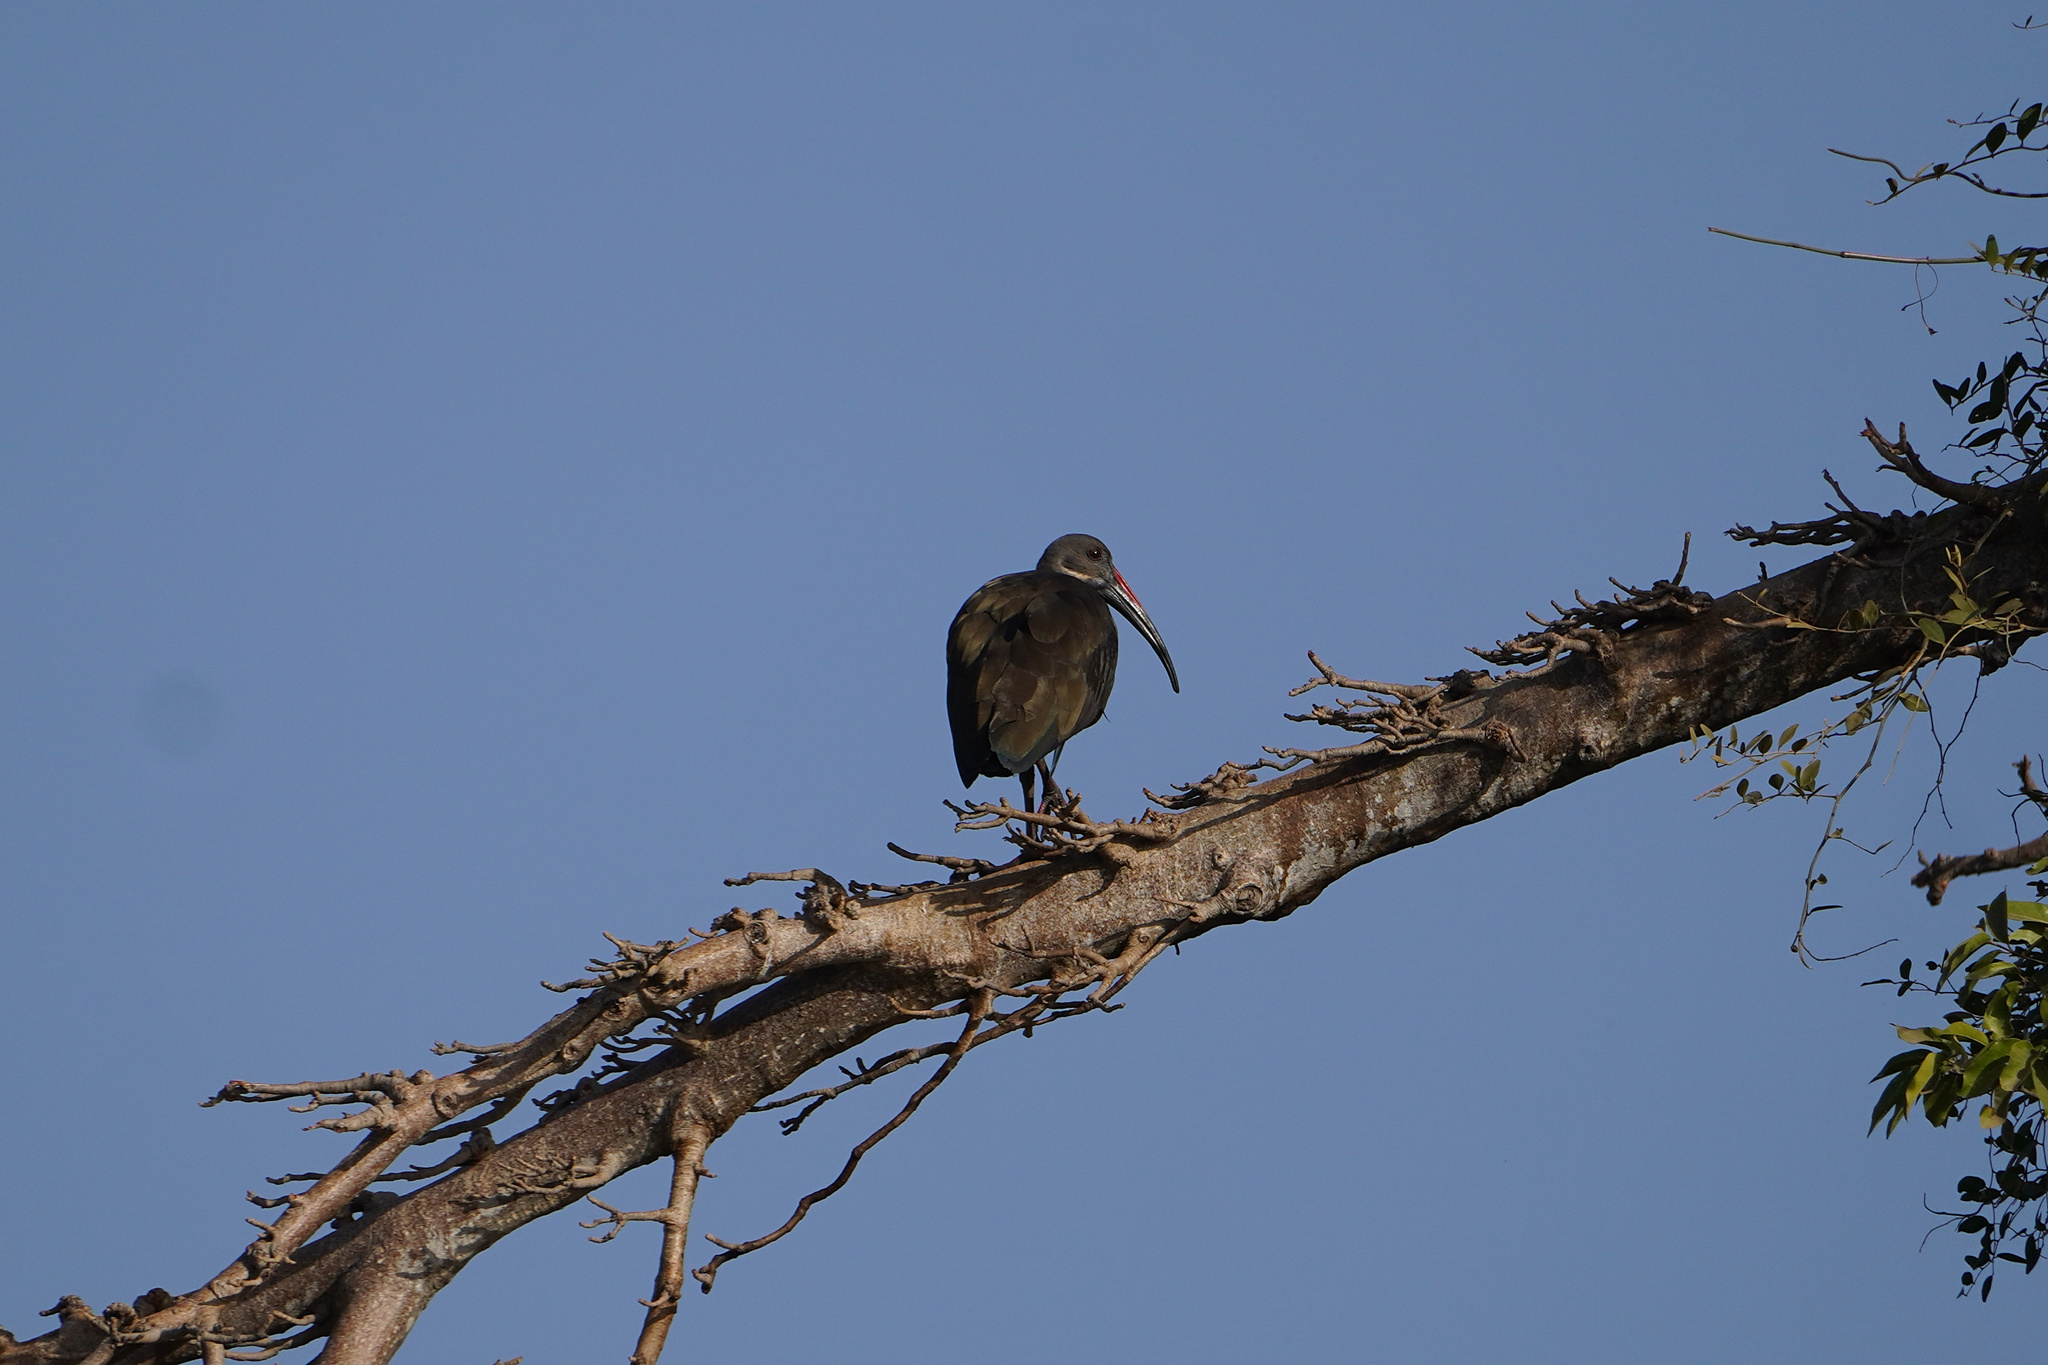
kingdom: Animalia
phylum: Chordata
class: Aves
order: Pelecaniformes
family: Threskiornithidae
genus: Bostrychia
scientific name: Bostrychia hagedash
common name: Hadada ibis
